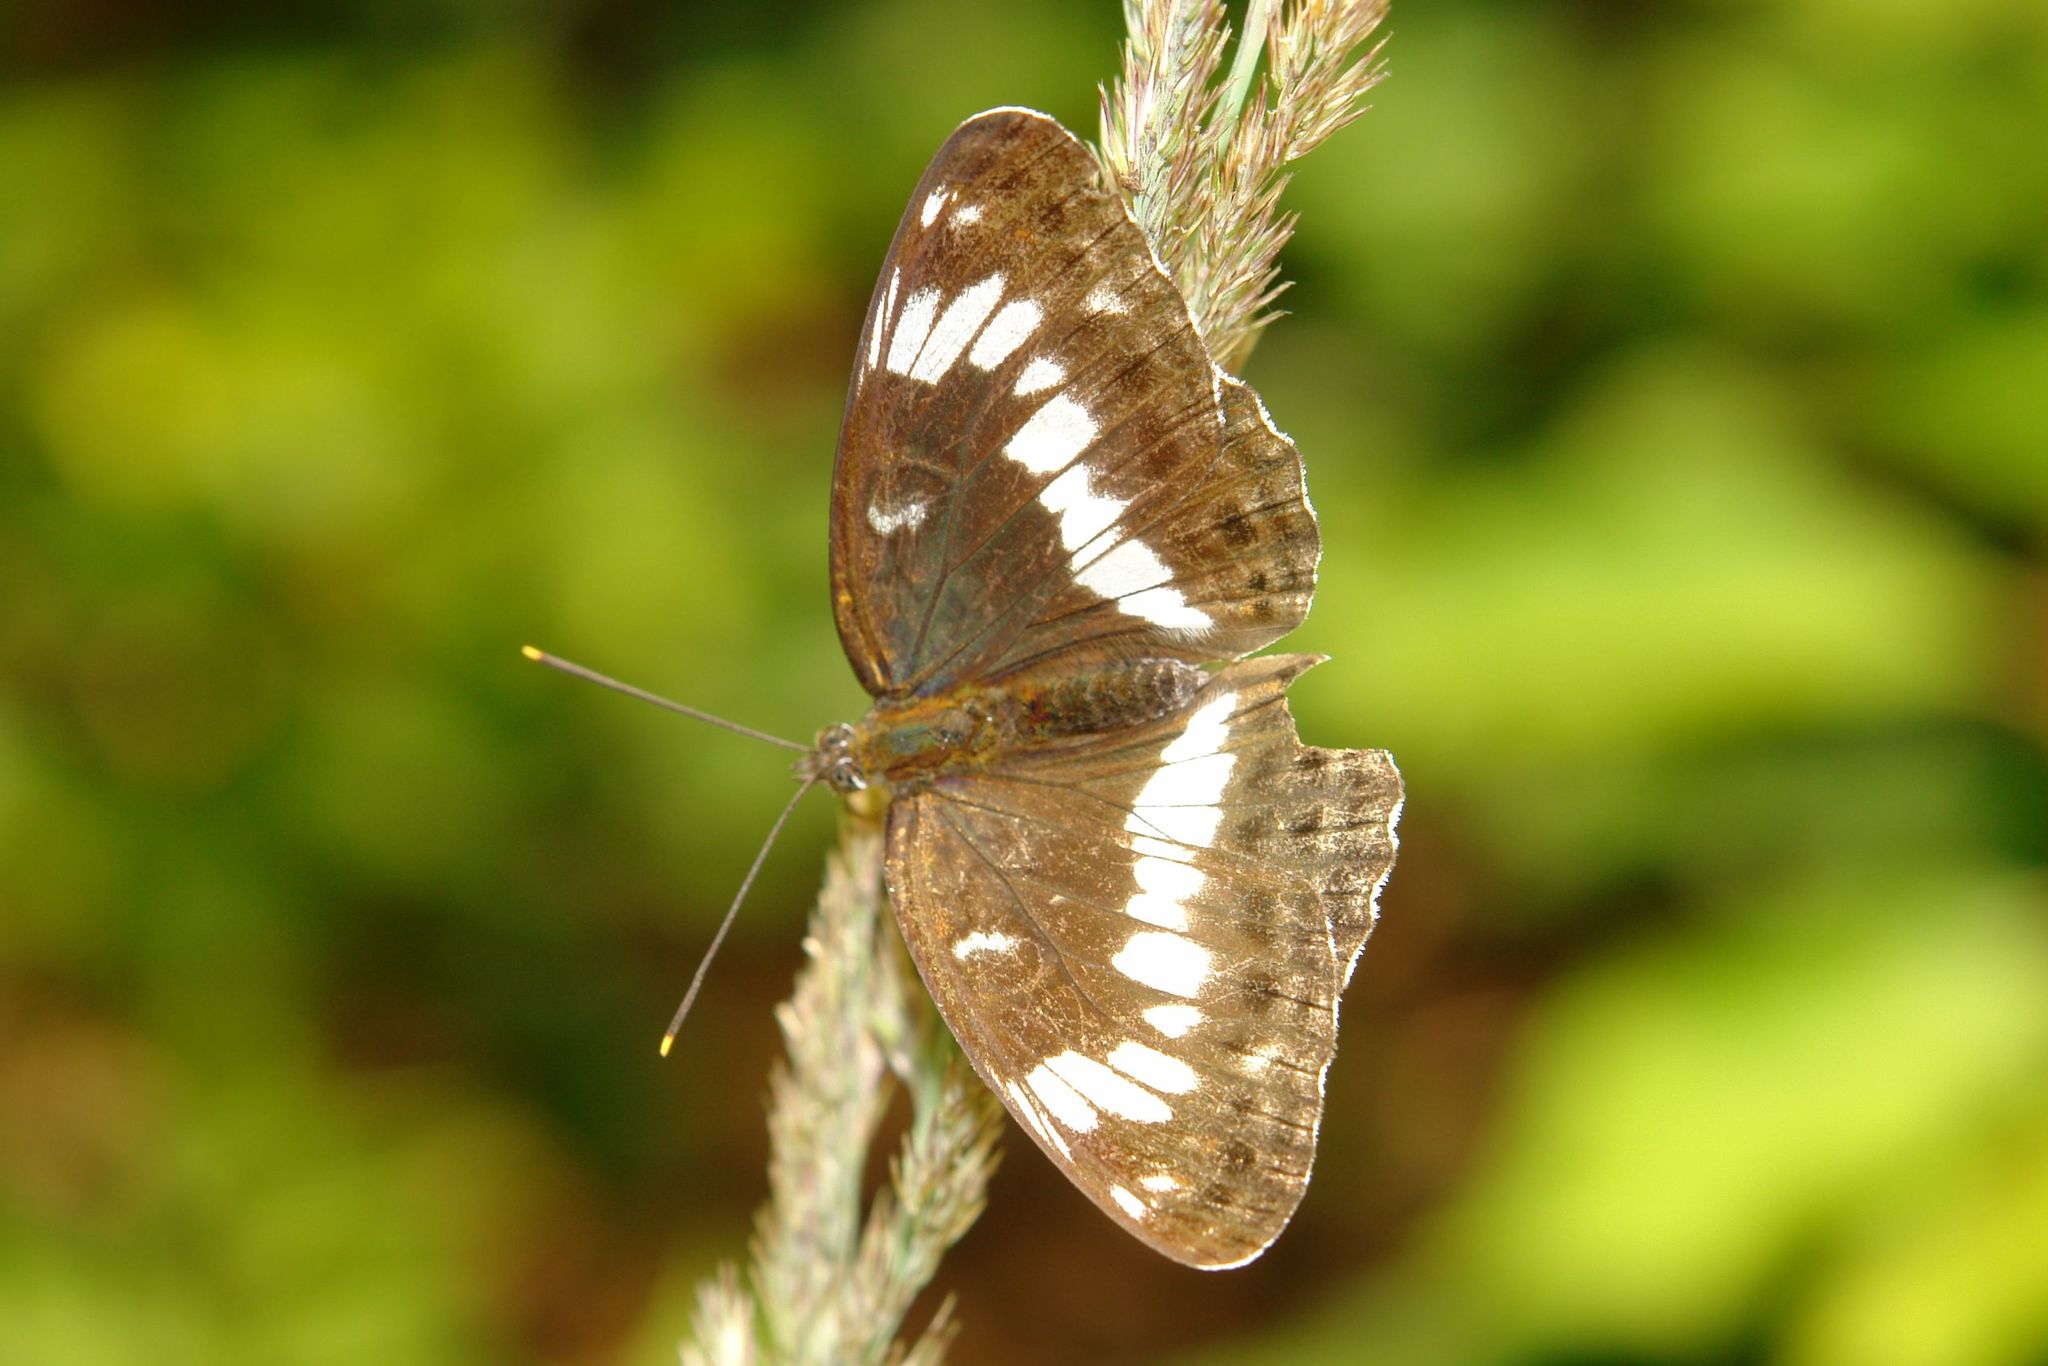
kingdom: Animalia
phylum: Arthropoda
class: Insecta
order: Lepidoptera
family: Nymphalidae
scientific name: Nymphalidae
